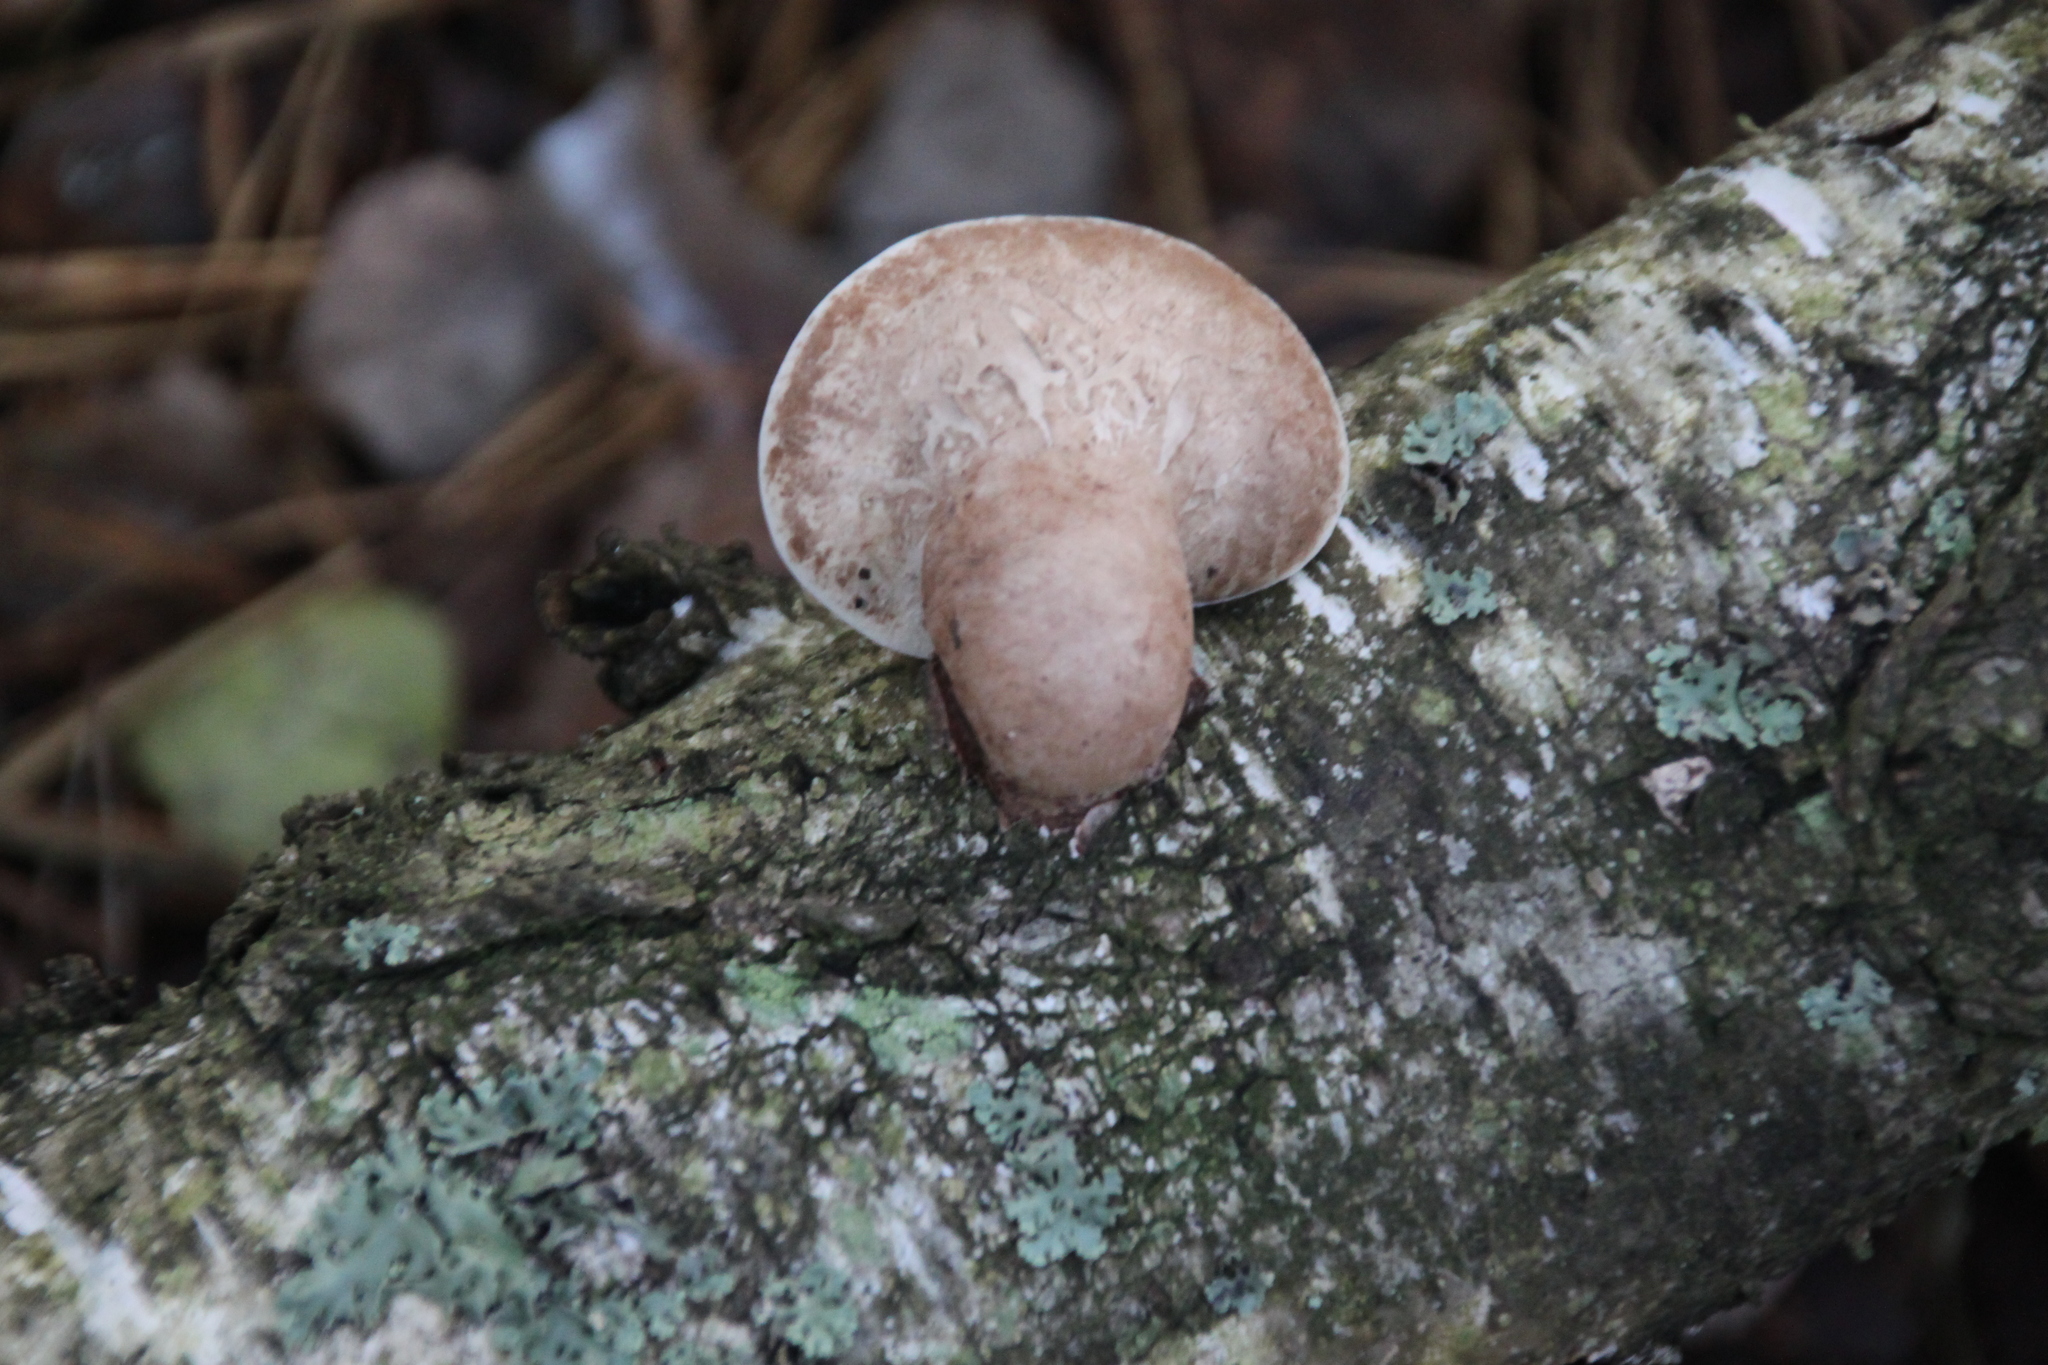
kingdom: Fungi
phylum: Basidiomycota
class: Agaricomycetes
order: Polyporales
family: Fomitopsidaceae
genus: Fomitopsis
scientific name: Fomitopsis betulina
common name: Birch polypore
